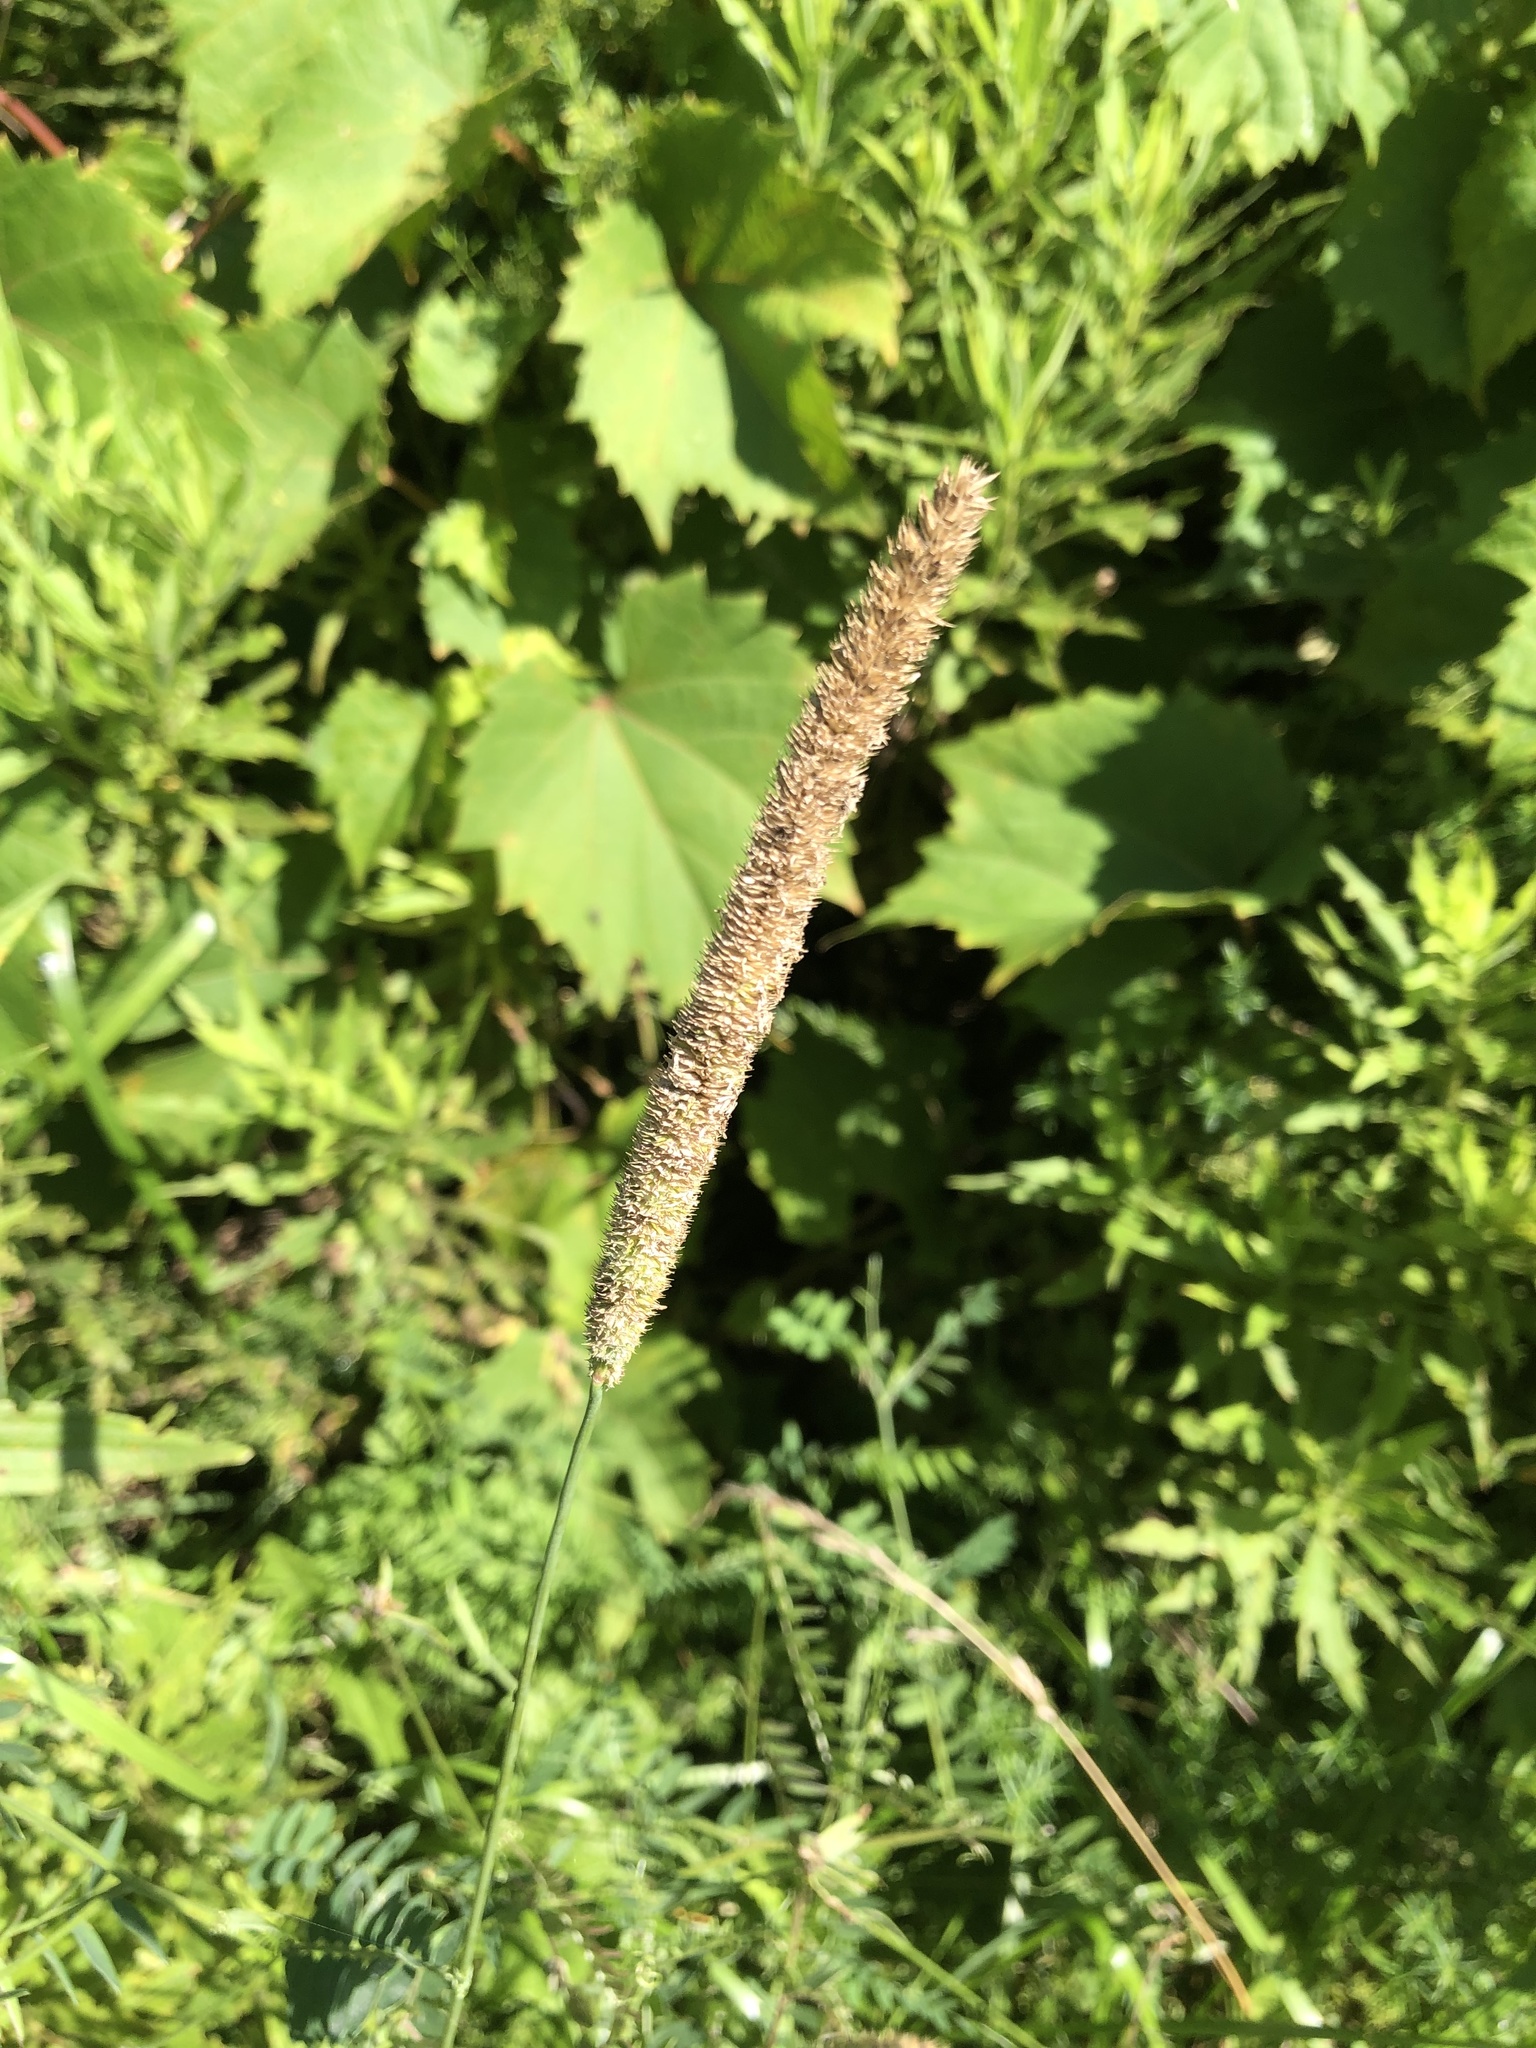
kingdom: Plantae
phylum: Tracheophyta
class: Liliopsida
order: Poales
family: Poaceae
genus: Phleum
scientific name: Phleum pratense
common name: Timothy grass
